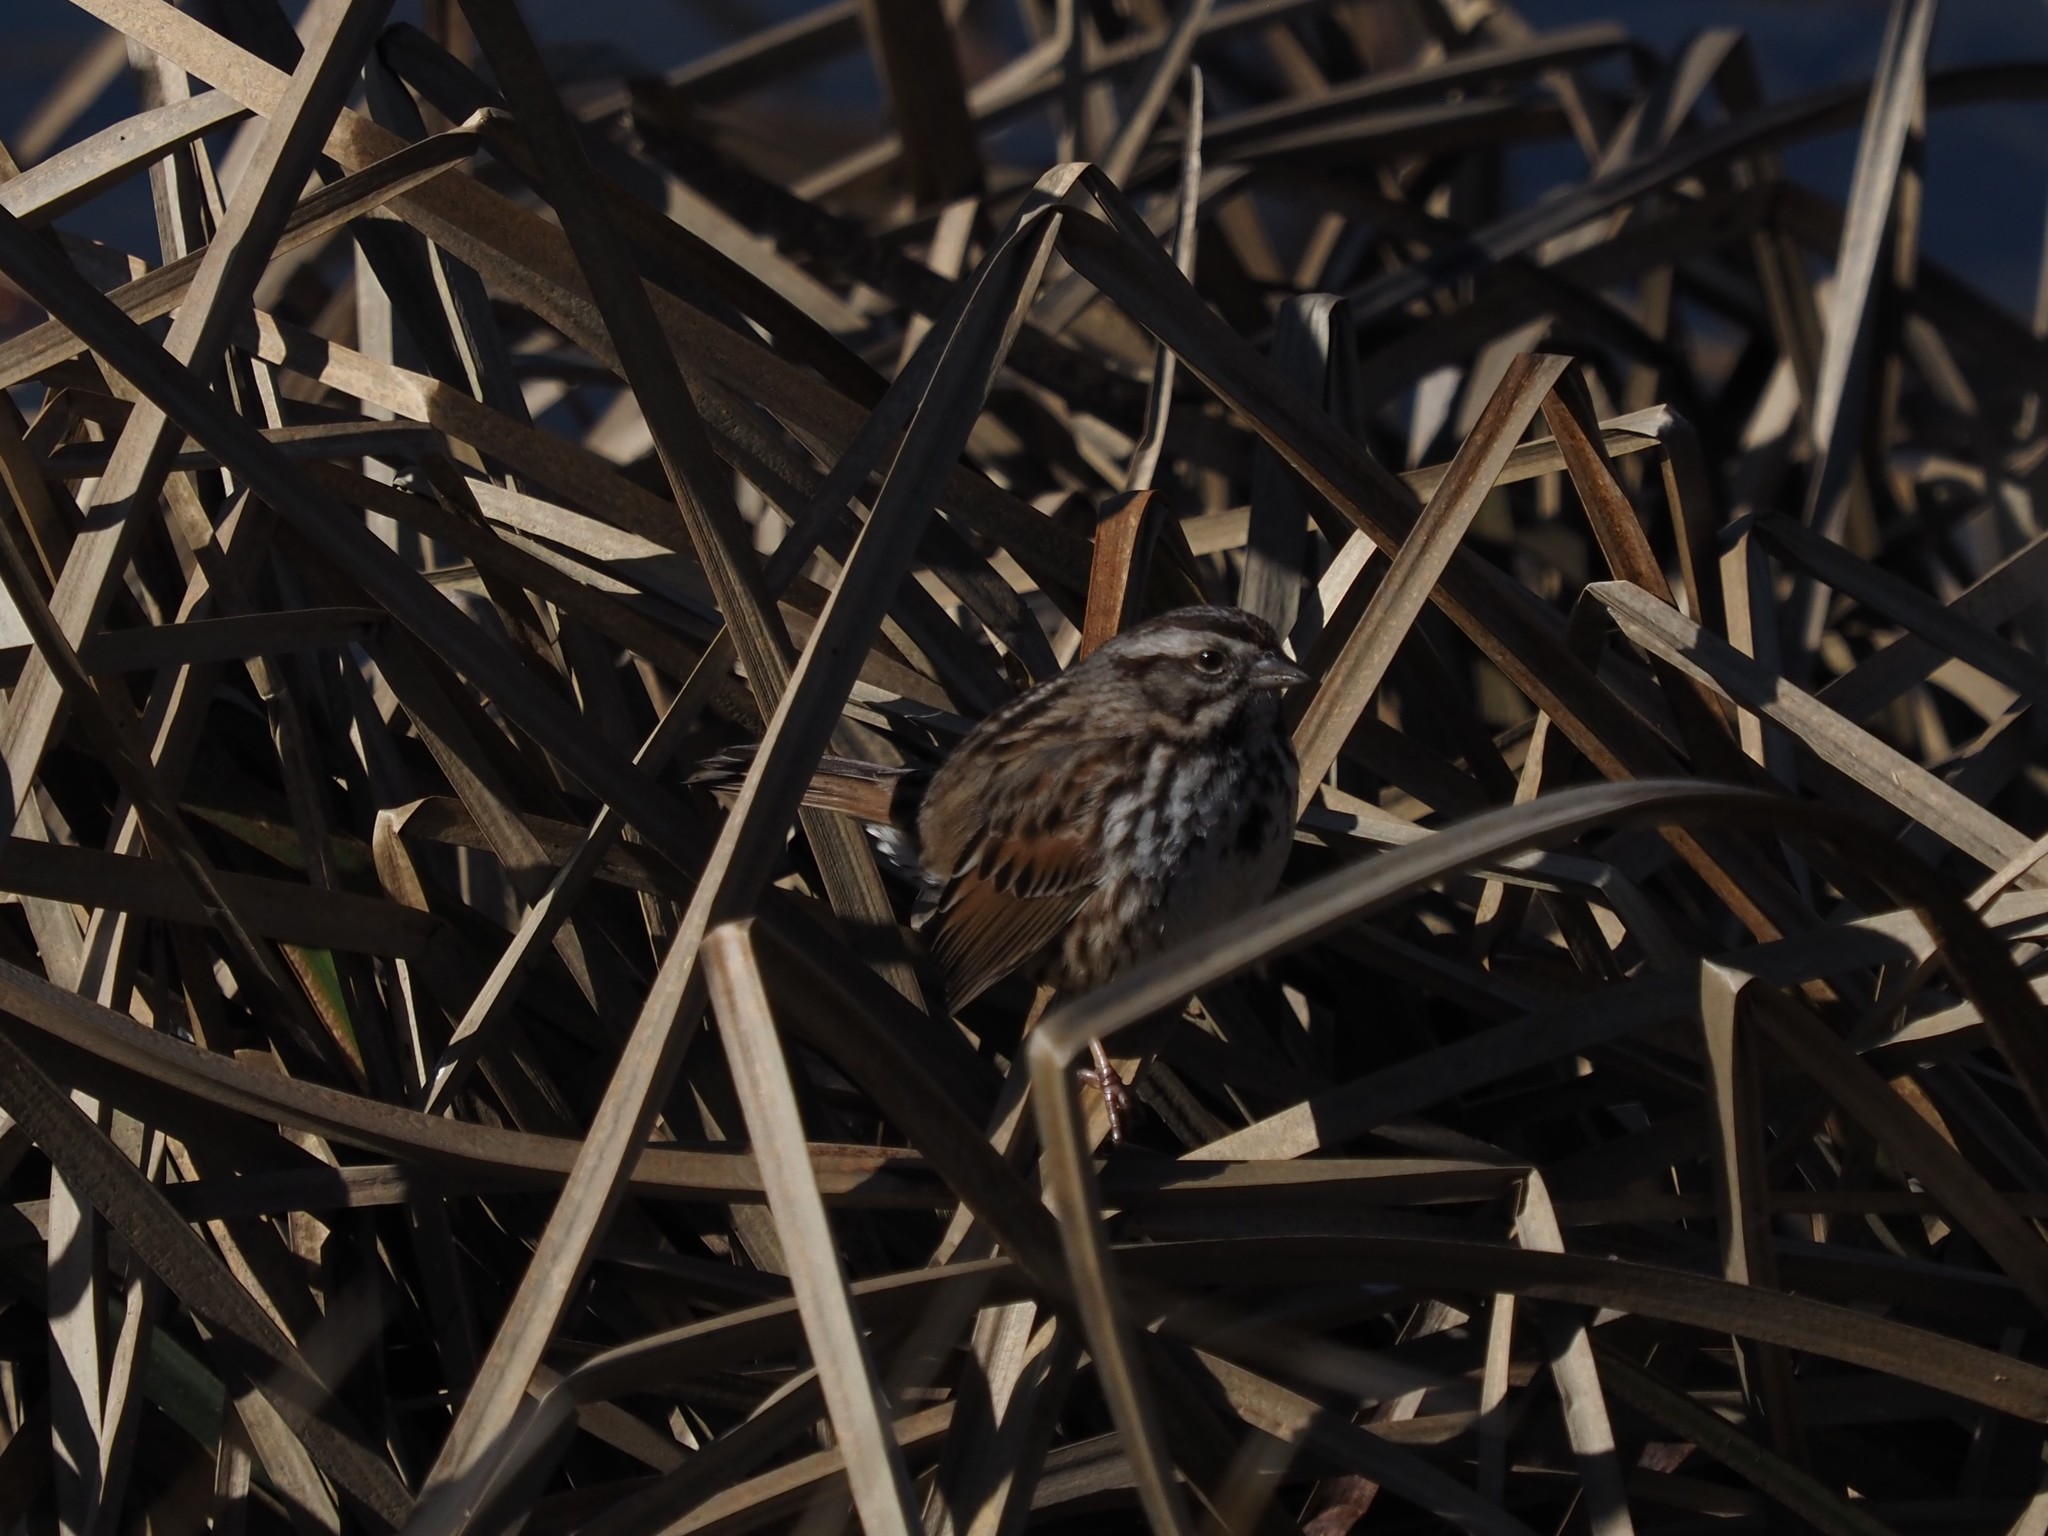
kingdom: Animalia
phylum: Chordata
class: Aves
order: Passeriformes
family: Passerellidae
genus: Melospiza
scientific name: Melospiza melodia
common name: Song sparrow
